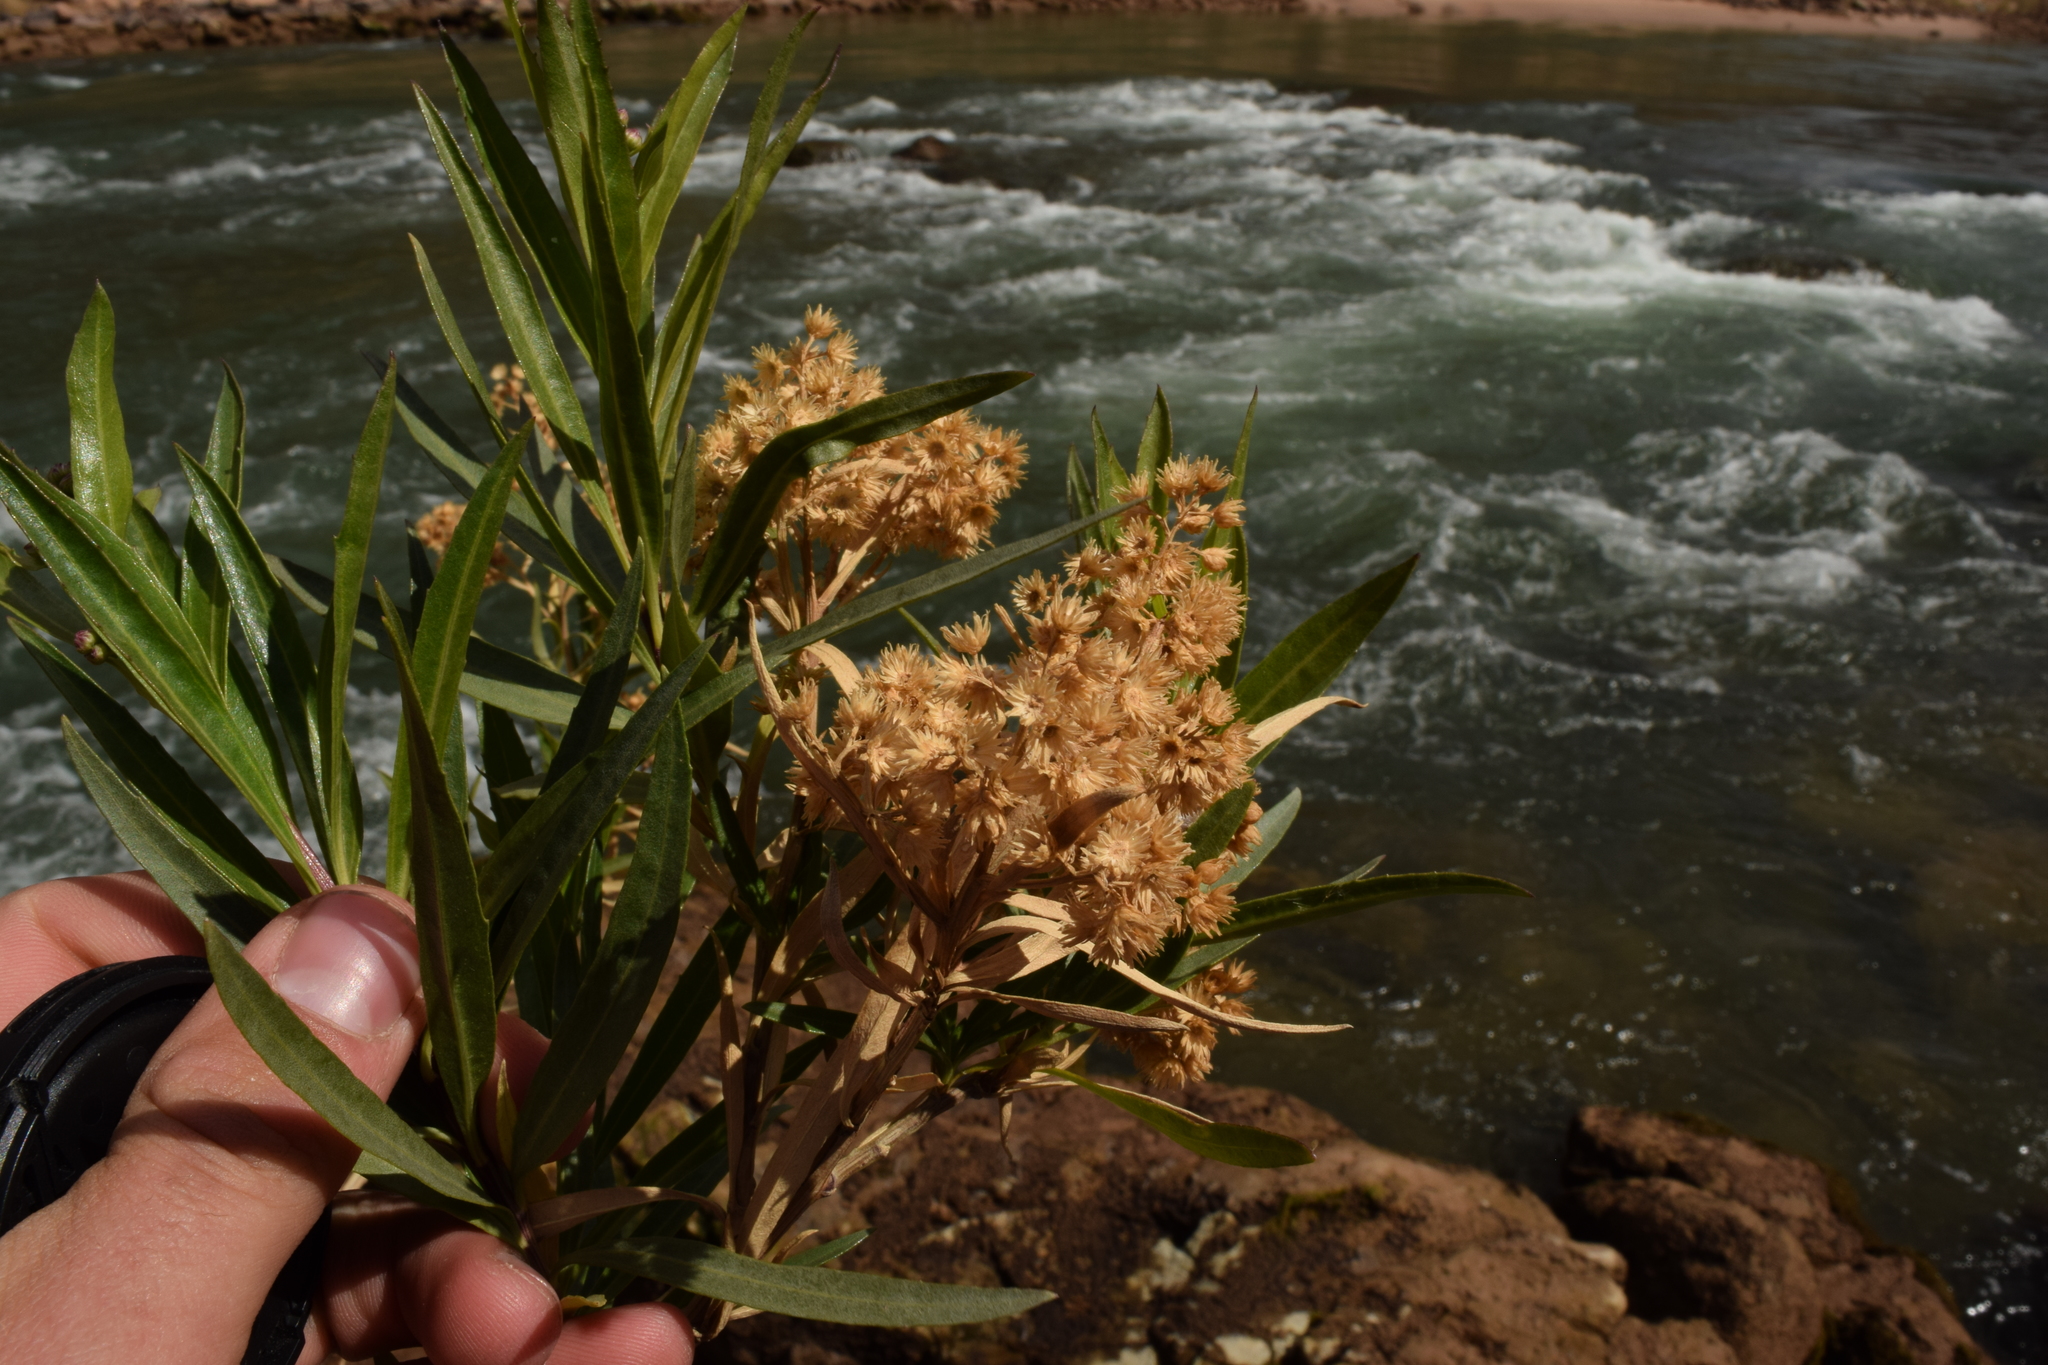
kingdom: Plantae
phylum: Tracheophyta
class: Magnoliopsida
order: Asterales
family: Asteraceae
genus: Baccharis
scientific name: Baccharis salicifolia
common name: Sticky baccharis
